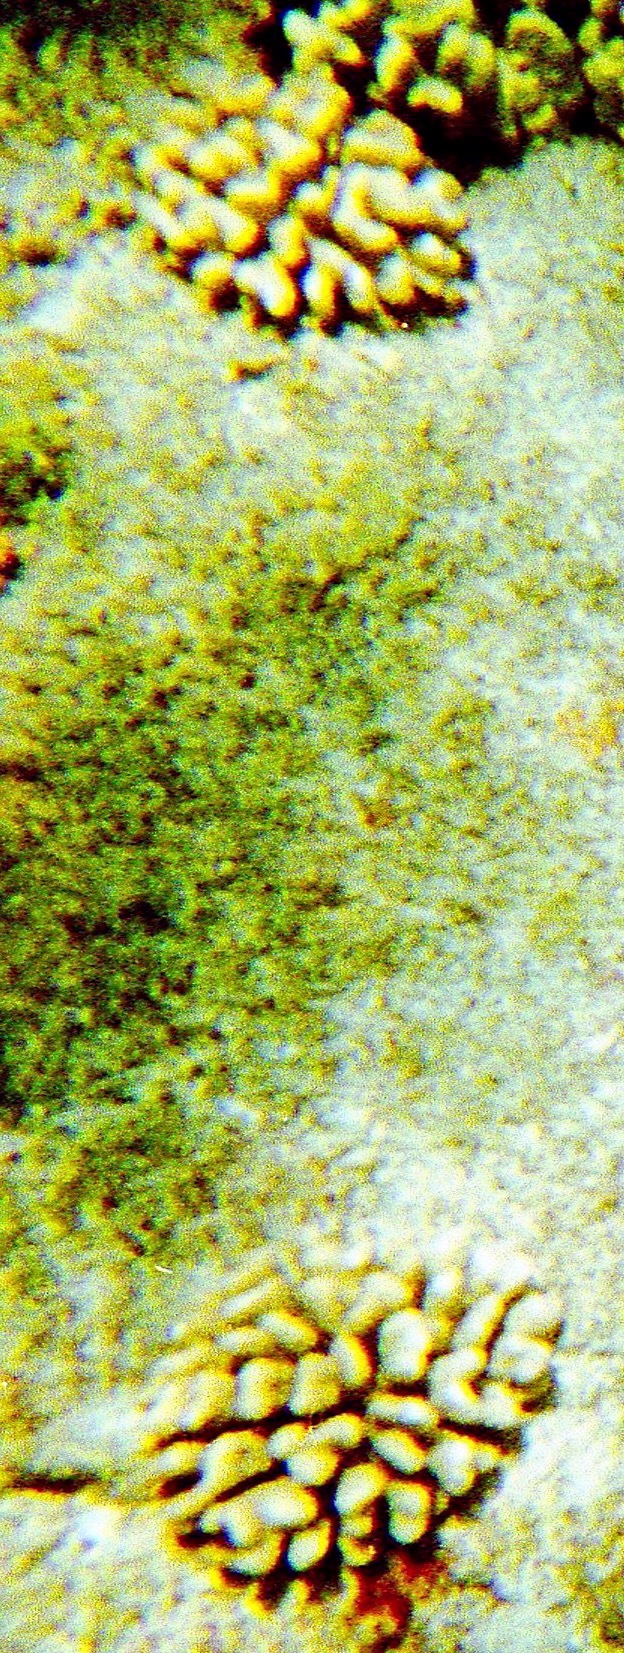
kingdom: Animalia
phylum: Cnidaria
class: Anthozoa
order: Scleractinia
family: Pocilloporidae
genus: Pocillopora
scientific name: Pocillopora meandrina
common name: Cauliflower coral
